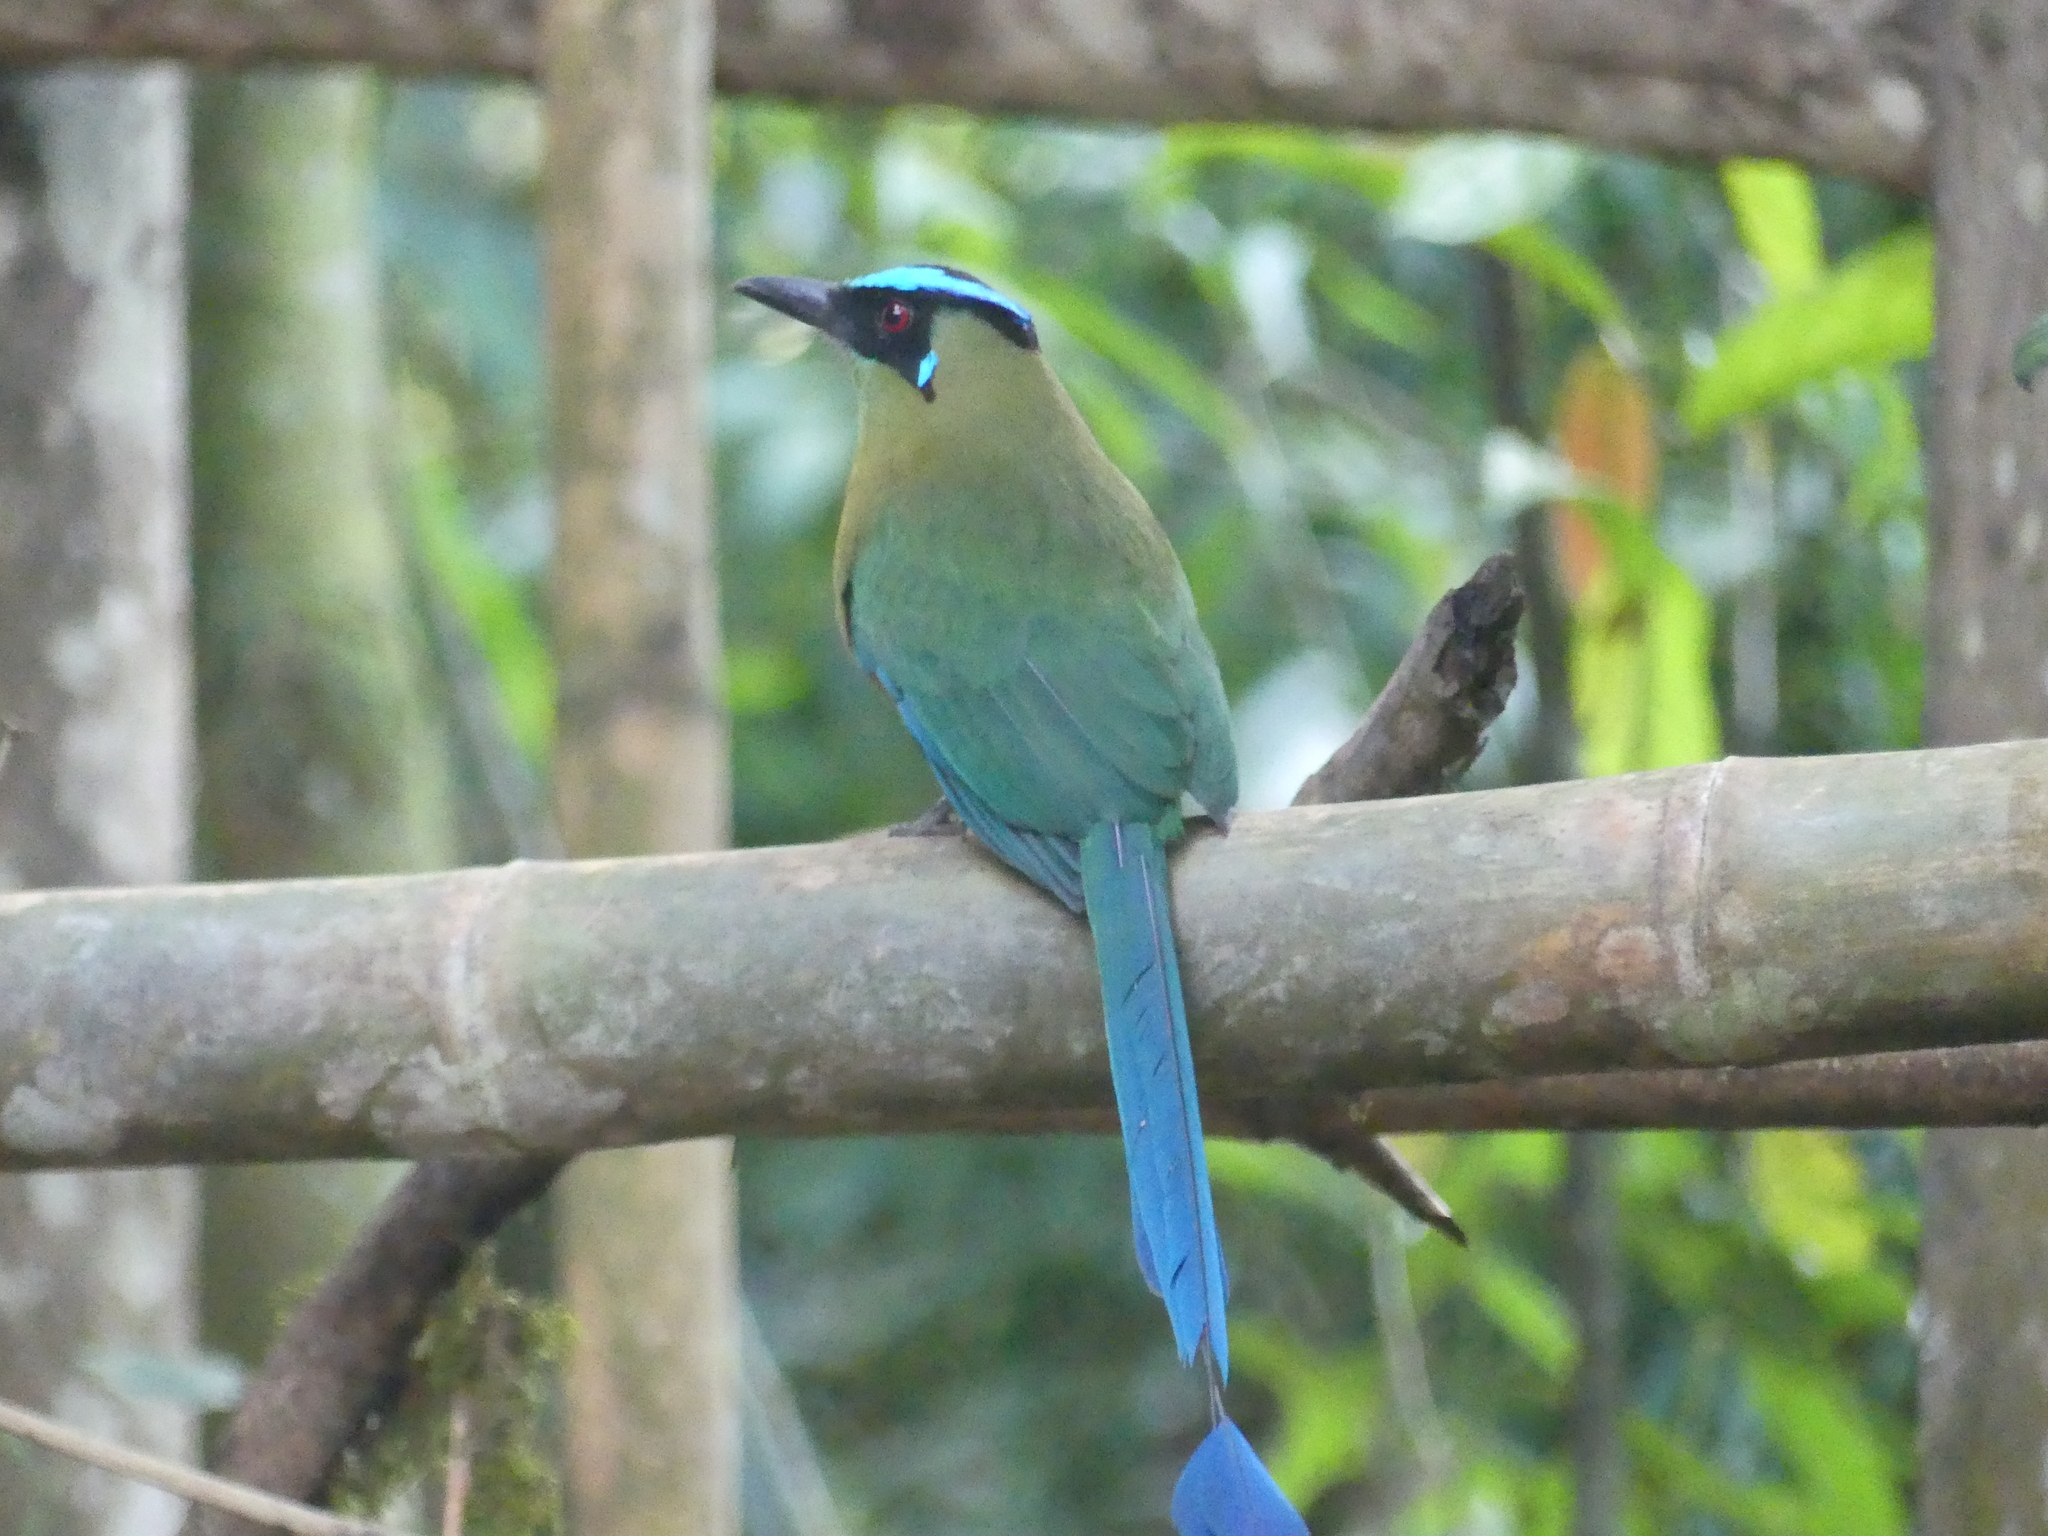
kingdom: Animalia
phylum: Chordata
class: Aves
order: Coraciiformes
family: Momotidae
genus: Momotus
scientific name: Momotus aequatorialis
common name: Andean motmot
